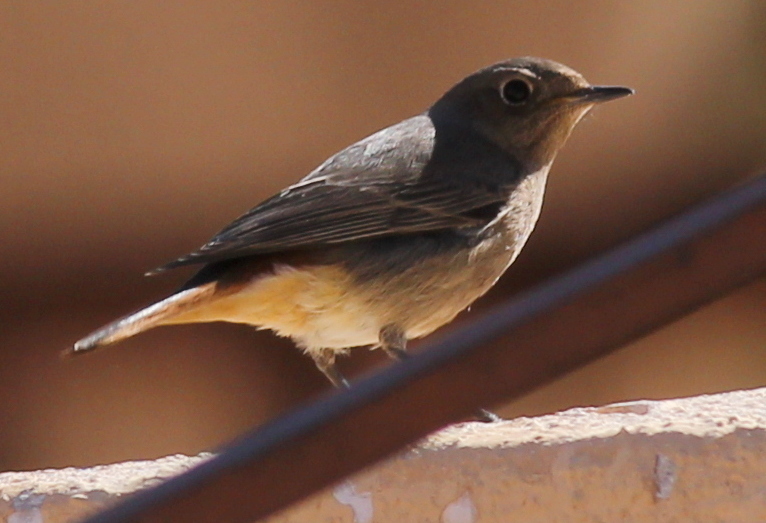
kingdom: Animalia
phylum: Chordata
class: Aves
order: Passeriformes
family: Muscicapidae
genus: Phoenicurus
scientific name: Phoenicurus ochruros
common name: Black redstart
